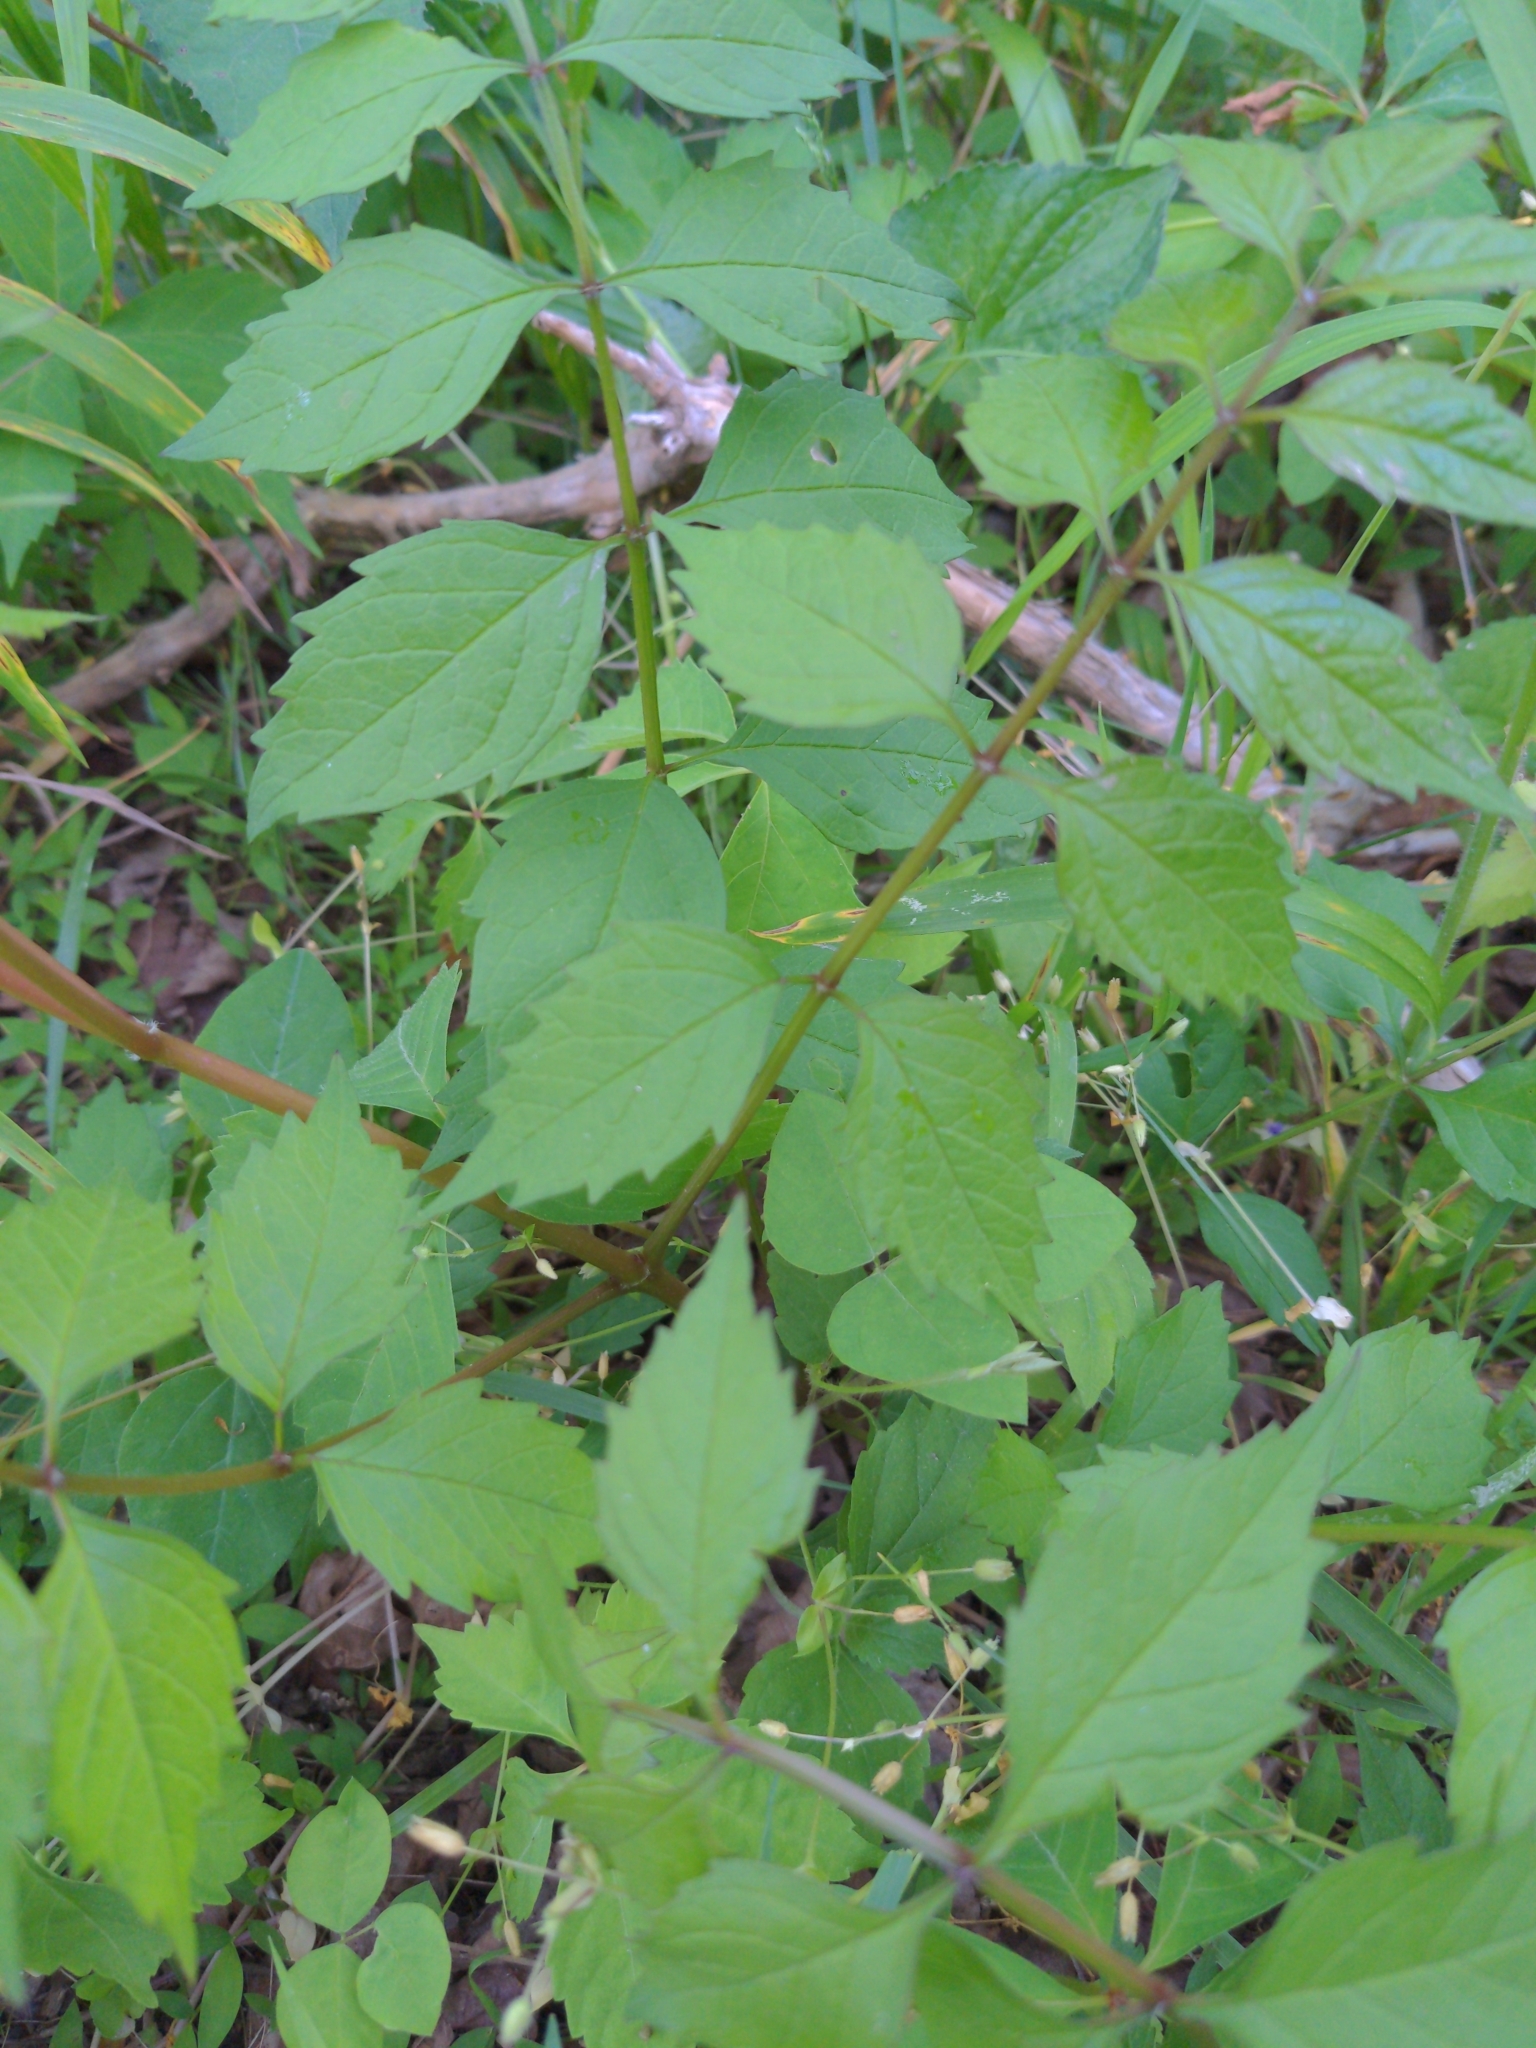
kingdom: Plantae
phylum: Tracheophyta
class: Magnoliopsida
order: Lamiales
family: Bignoniaceae
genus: Campsis
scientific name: Campsis radicans
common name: Trumpet-creeper
